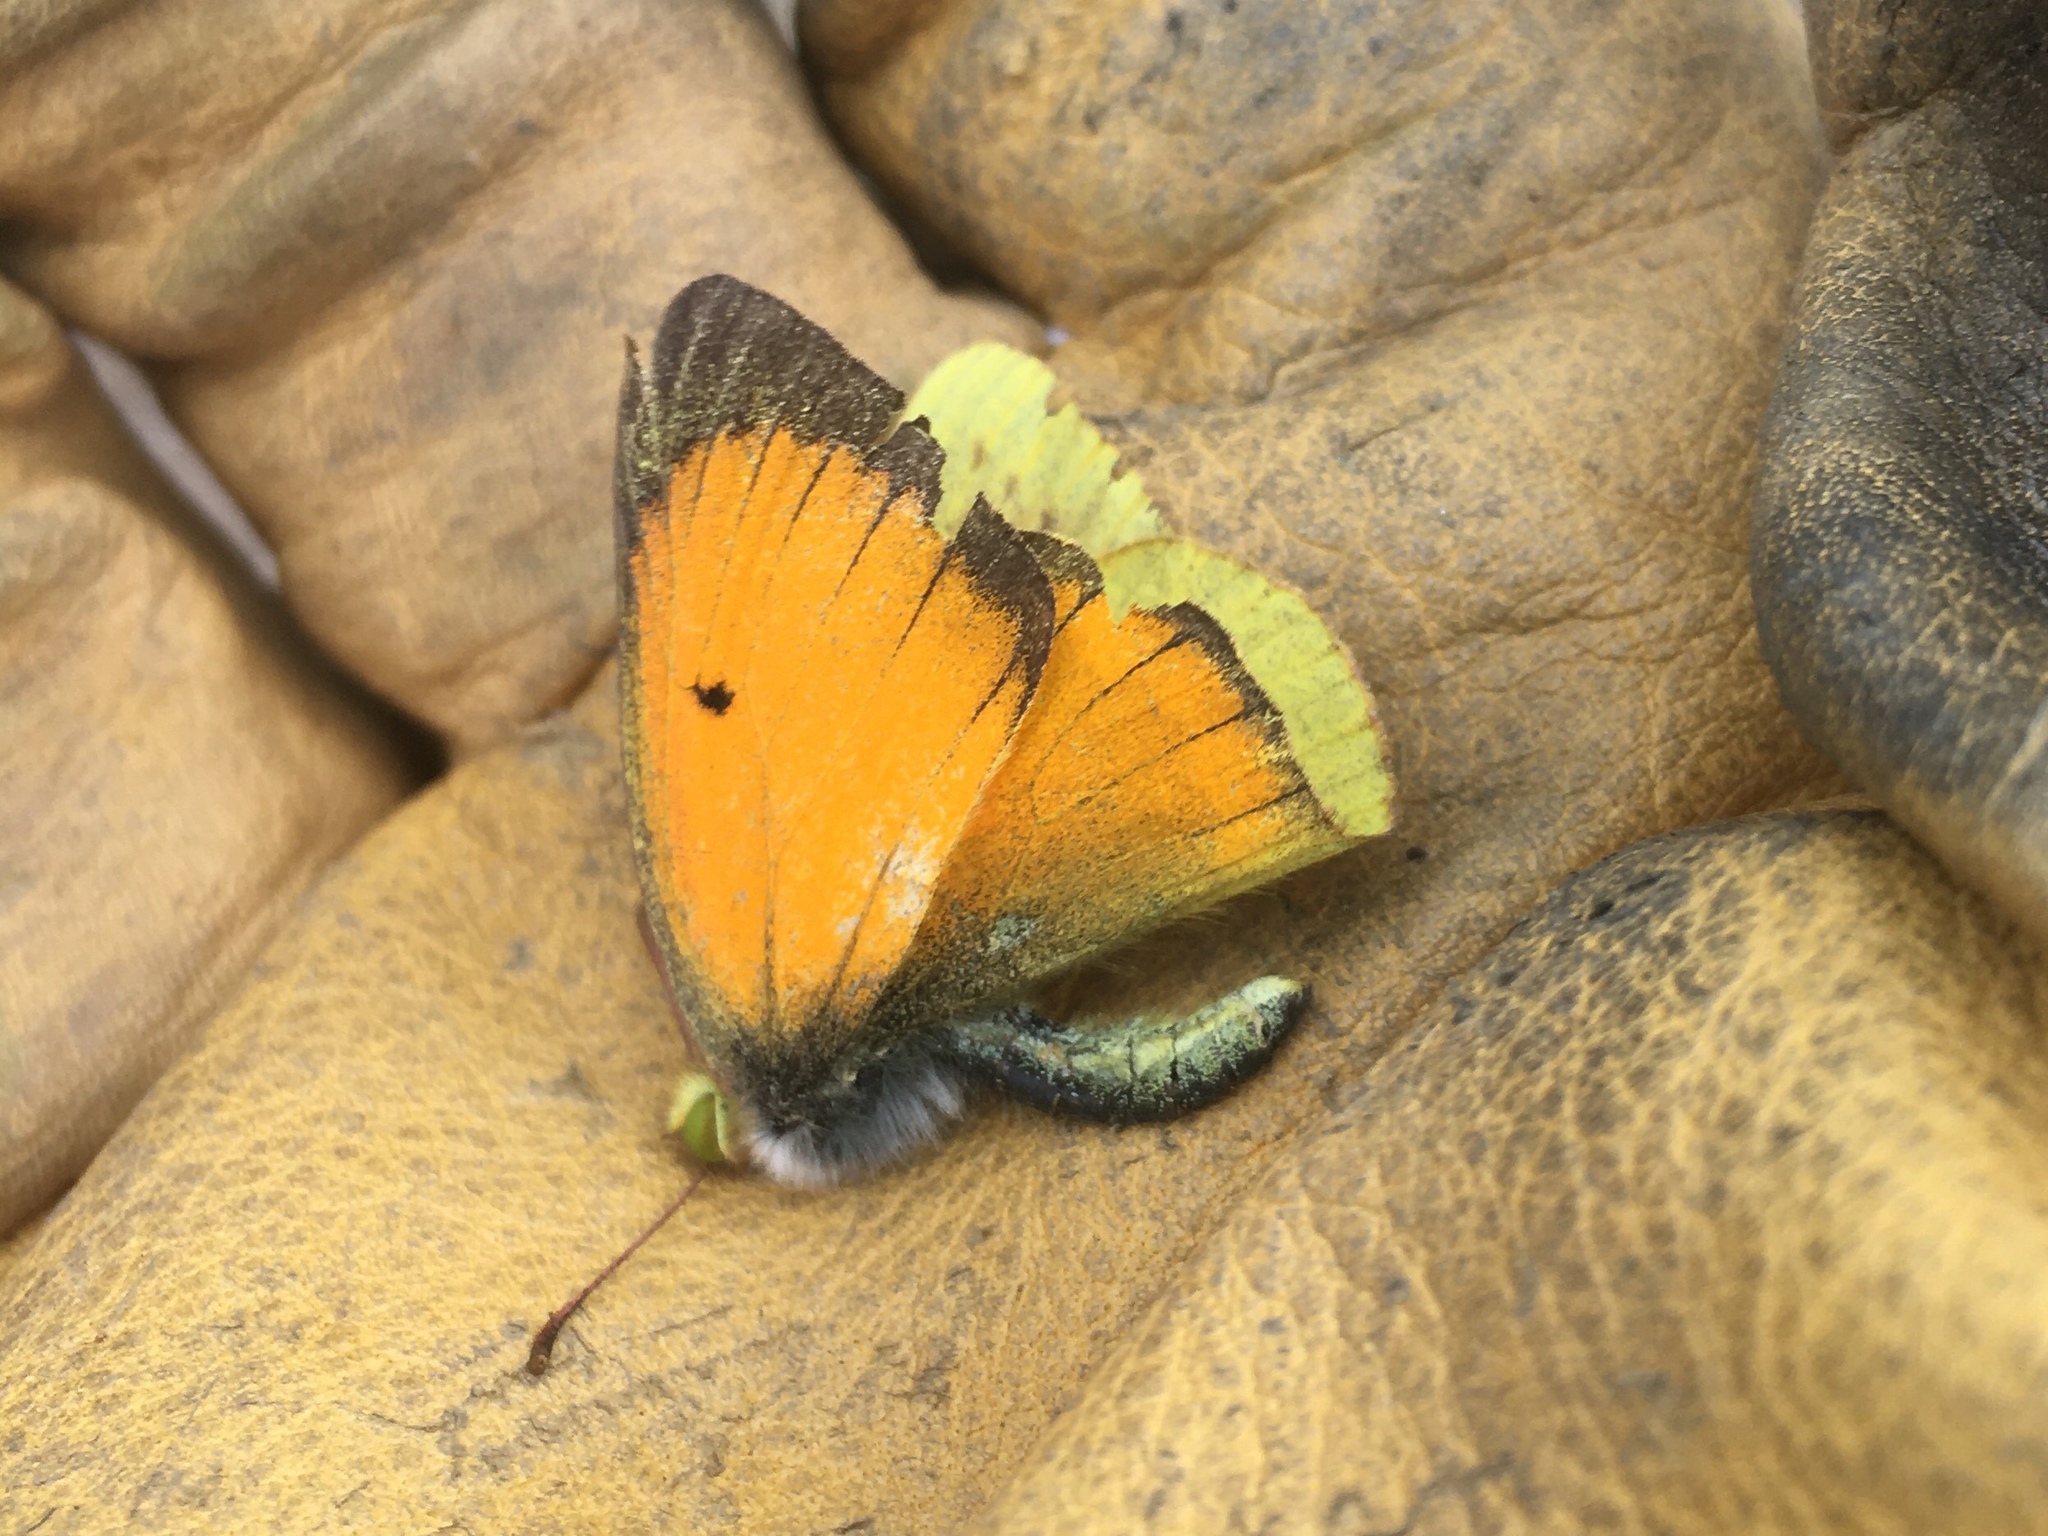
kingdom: Animalia
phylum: Arthropoda
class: Insecta
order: Lepidoptera
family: Pieridae
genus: Colias
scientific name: Colias lesbia
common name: Lesbia clouded yellow
